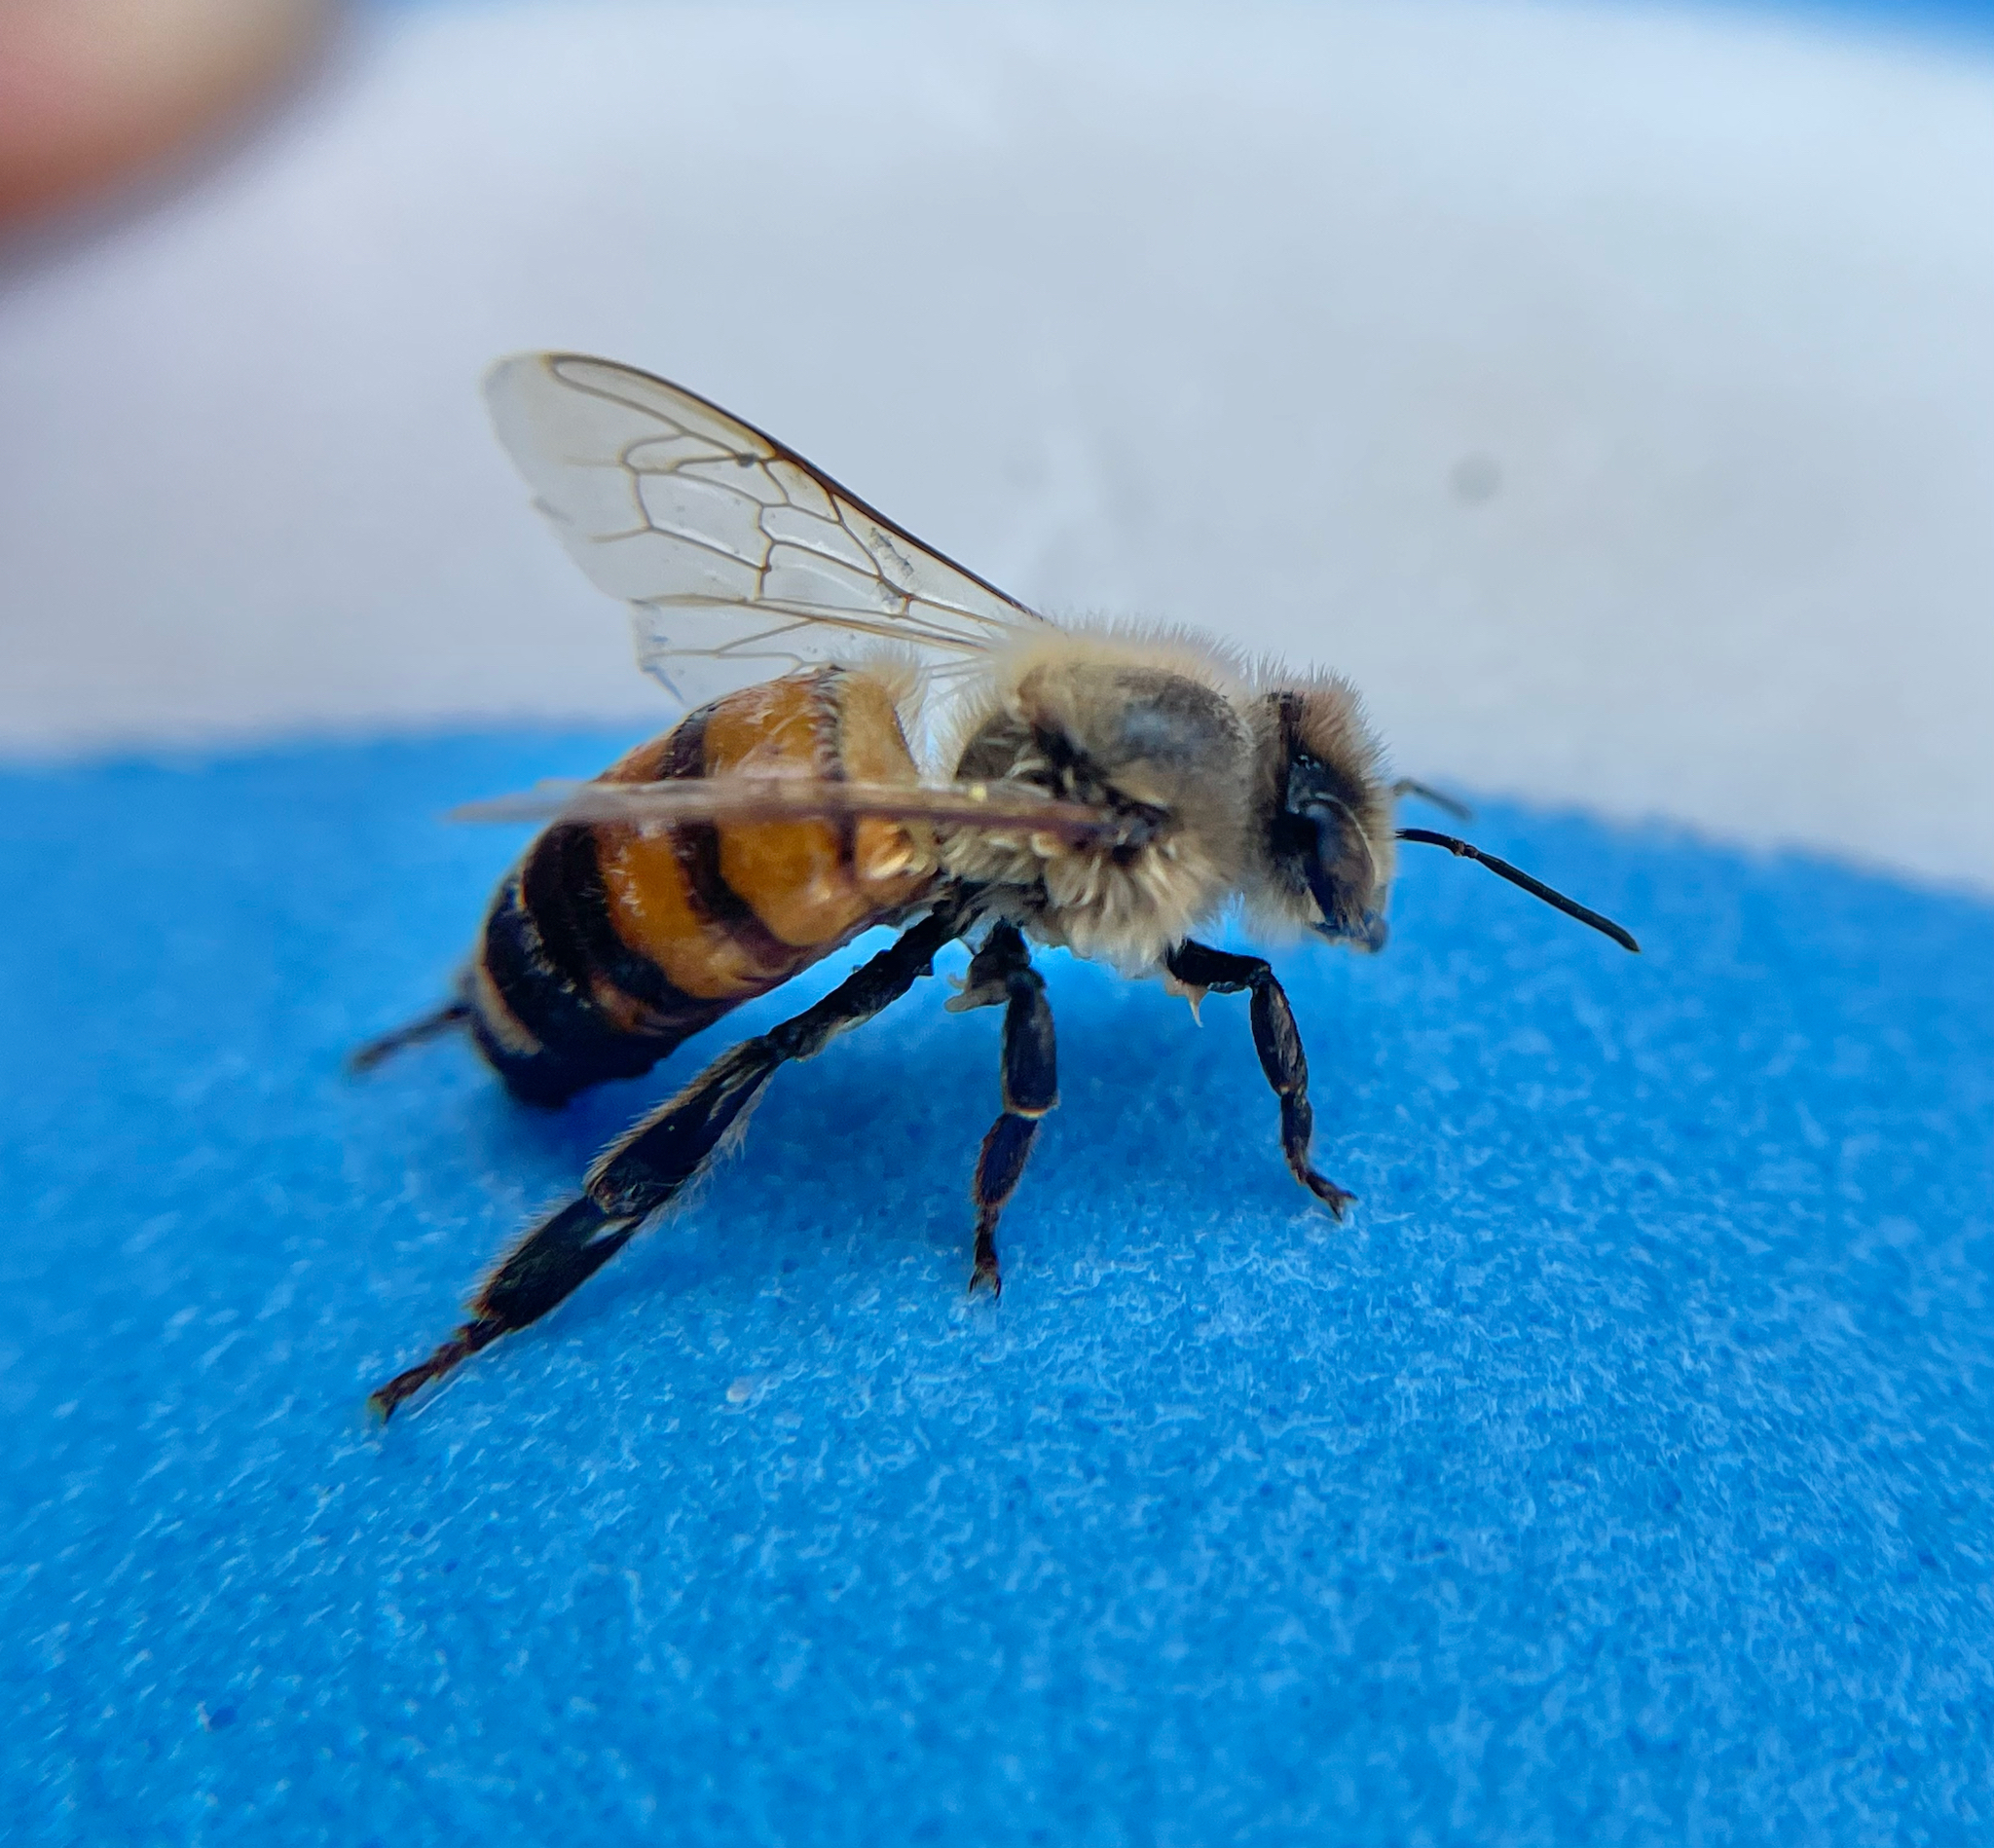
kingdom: Animalia
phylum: Arthropoda
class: Insecta
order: Hymenoptera
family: Apidae
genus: Apis
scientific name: Apis mellifera
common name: Honey bee
